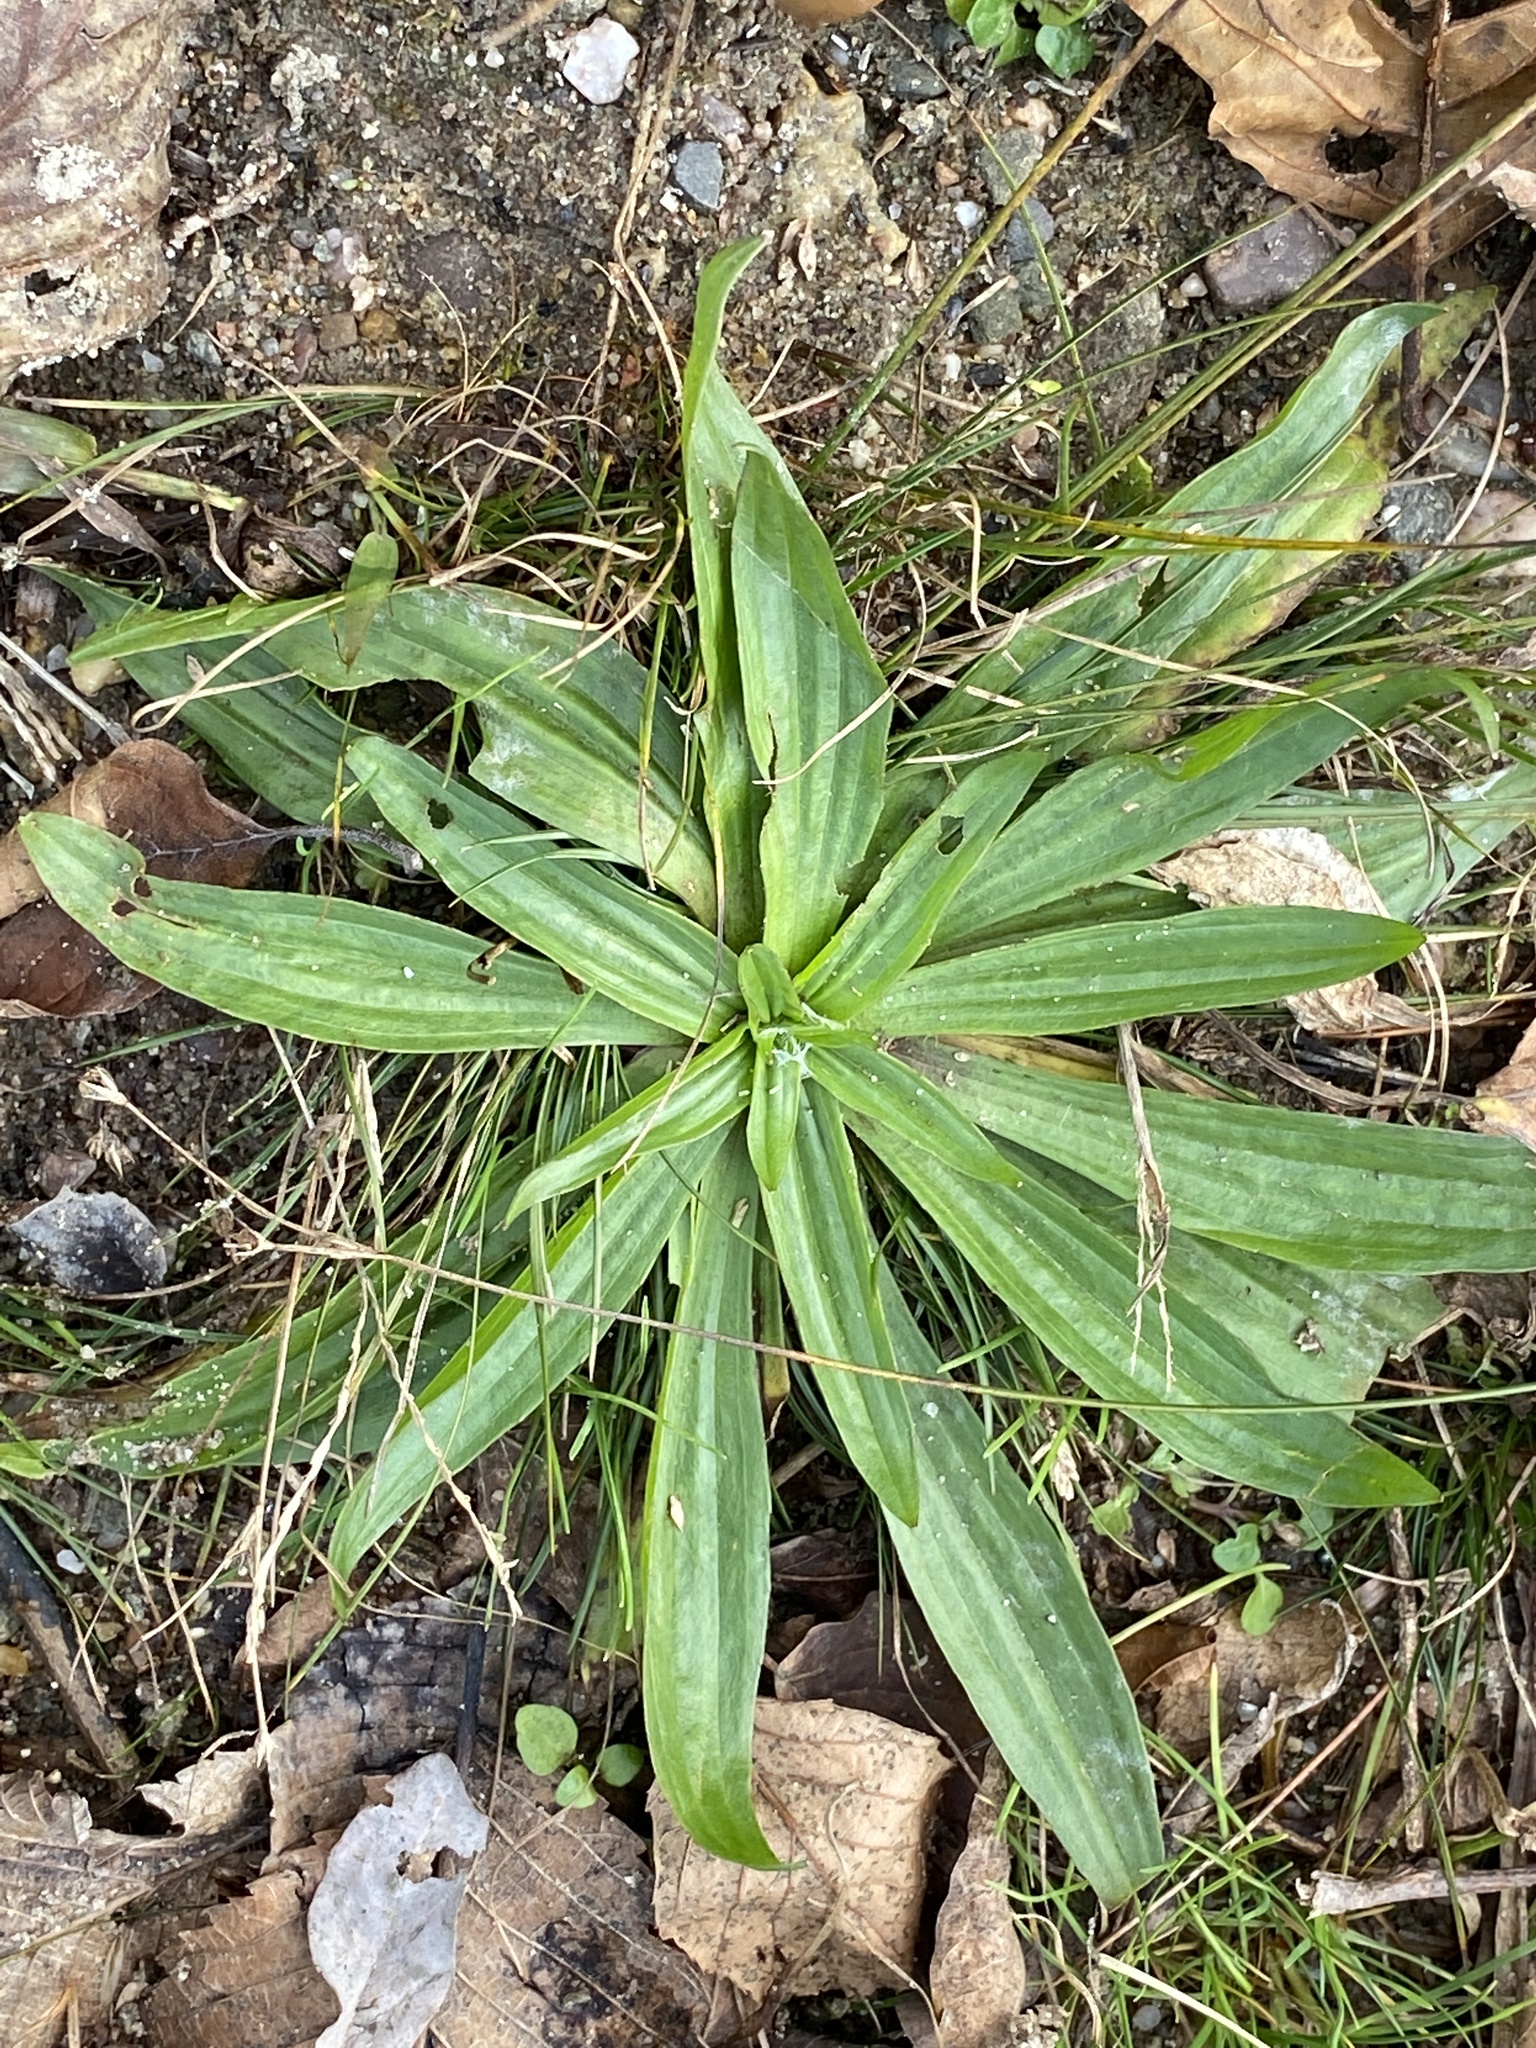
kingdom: Plantae
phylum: Tracheophyta
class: Magnoliopsida
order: Lamiales
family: Plantaginaceae
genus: Plantago
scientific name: Plantago lanceolata
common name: Ribwort plantain
